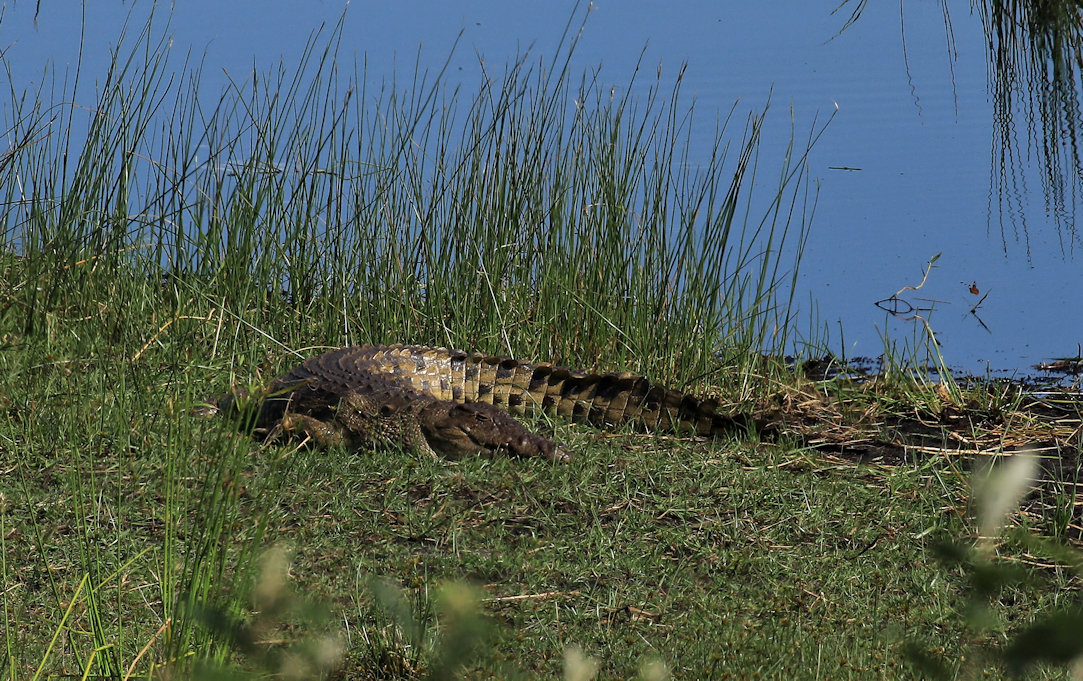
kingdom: Animalia
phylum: Chordata
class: Crocodylia
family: Crocodylidae
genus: Crocodylus
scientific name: Crocodylus niloticus
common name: Nile crocodile
